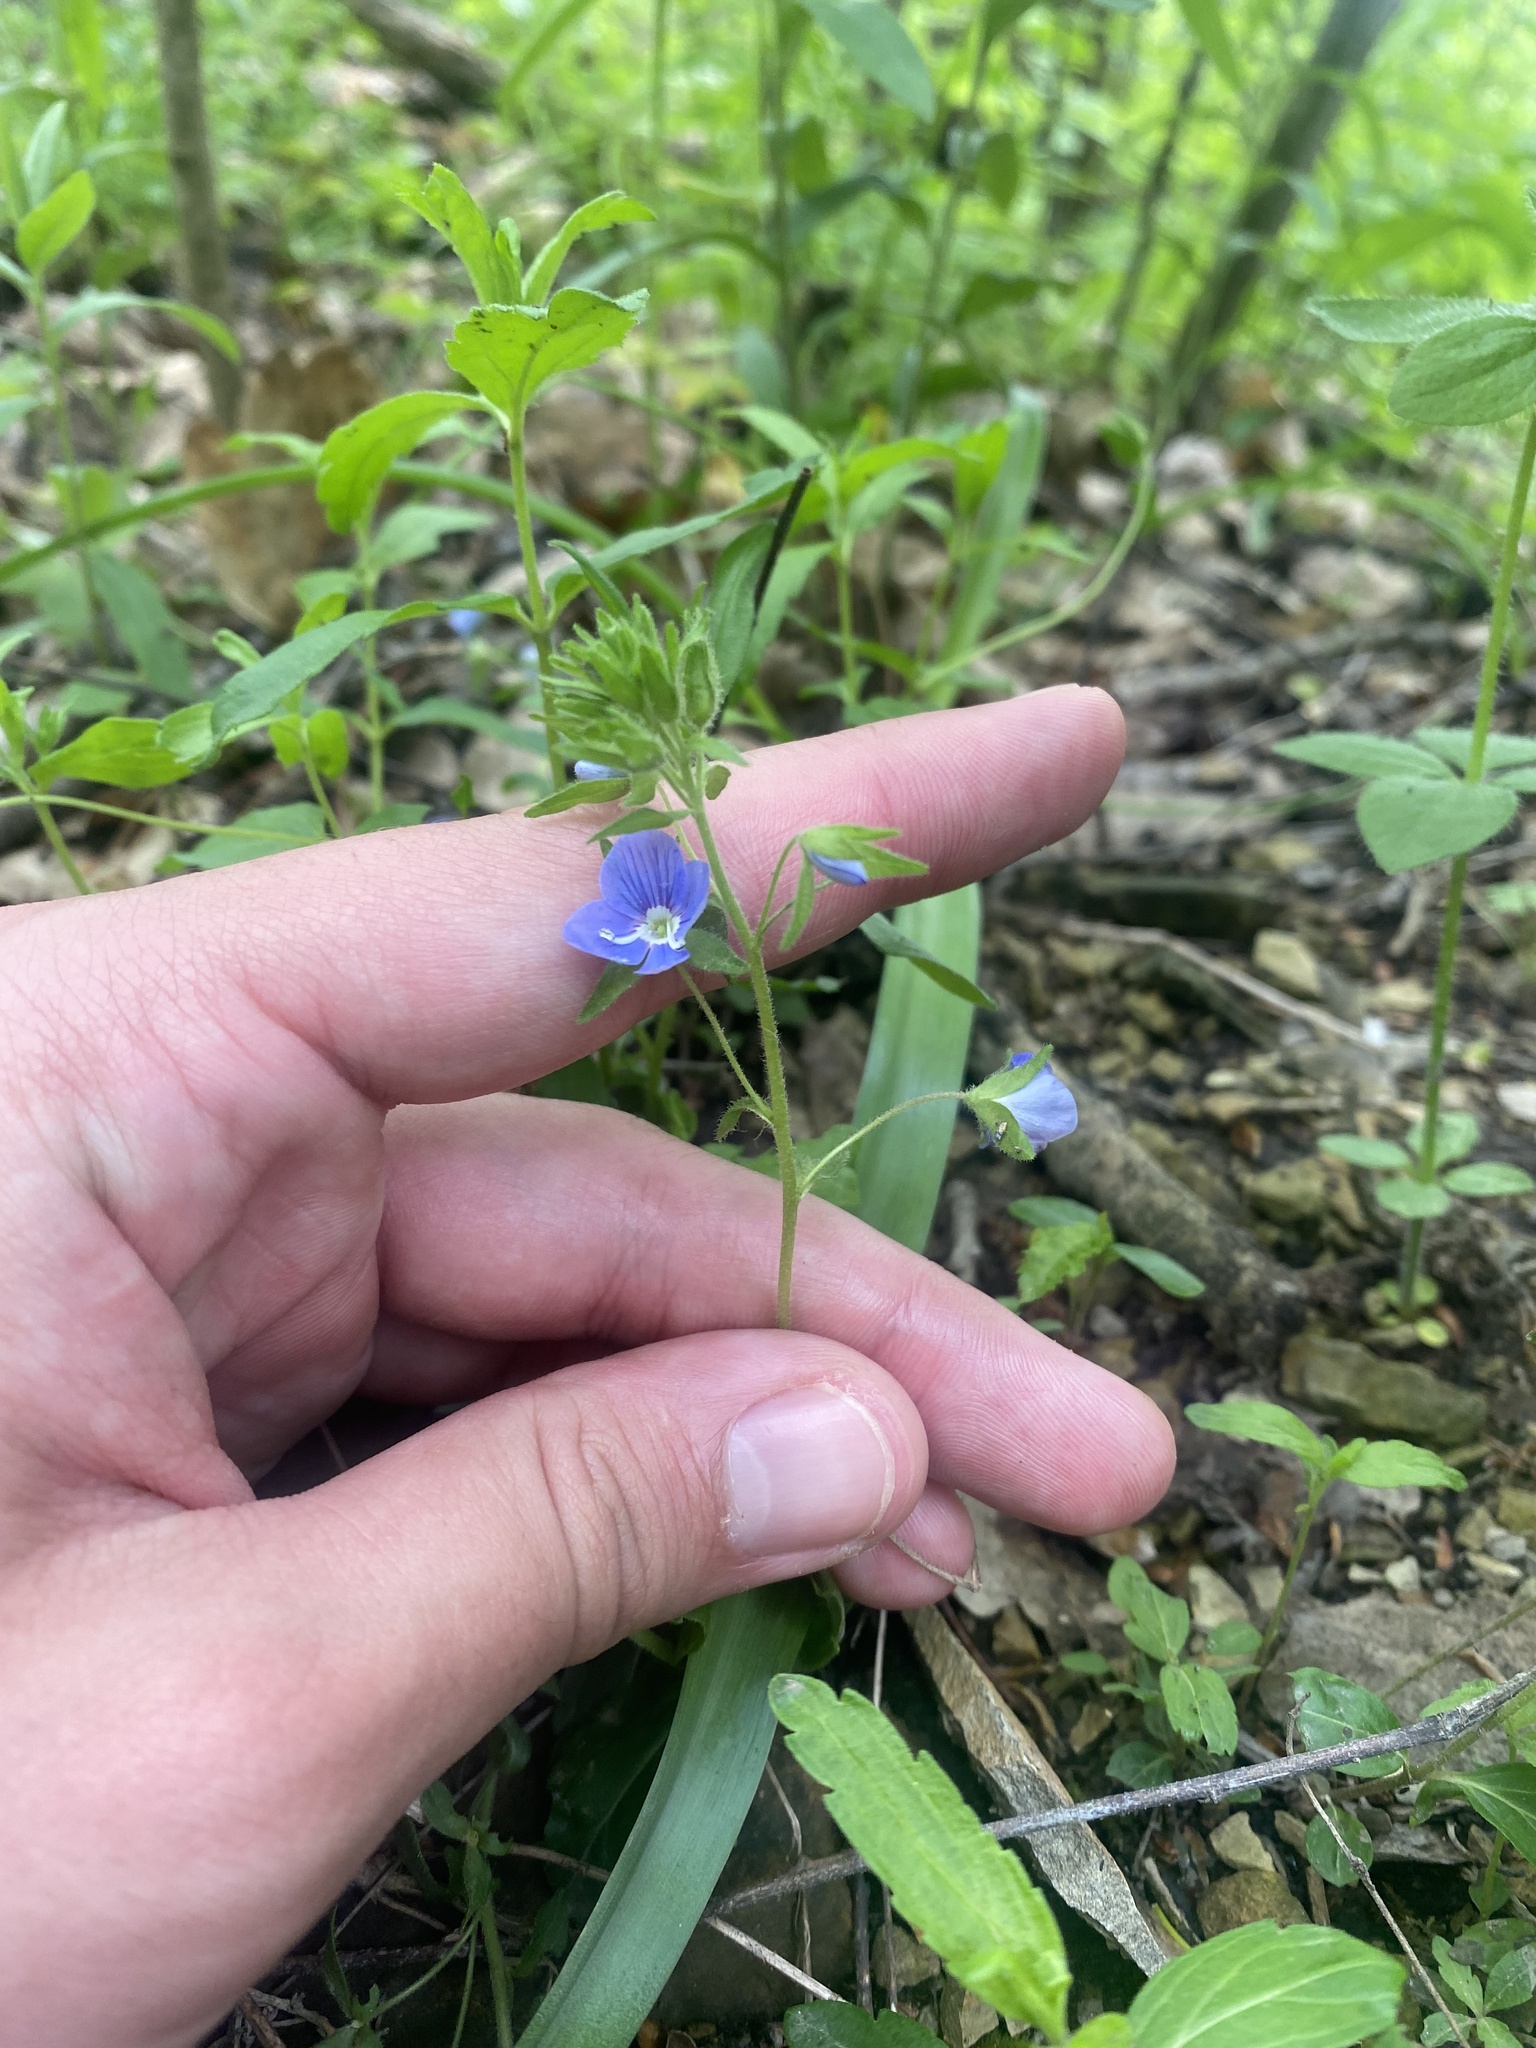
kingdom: Plantae
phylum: Tracheophyta
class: Magnoliopsida
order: Lamiales
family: Plantaginaceae
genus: Veronica
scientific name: Veronica
